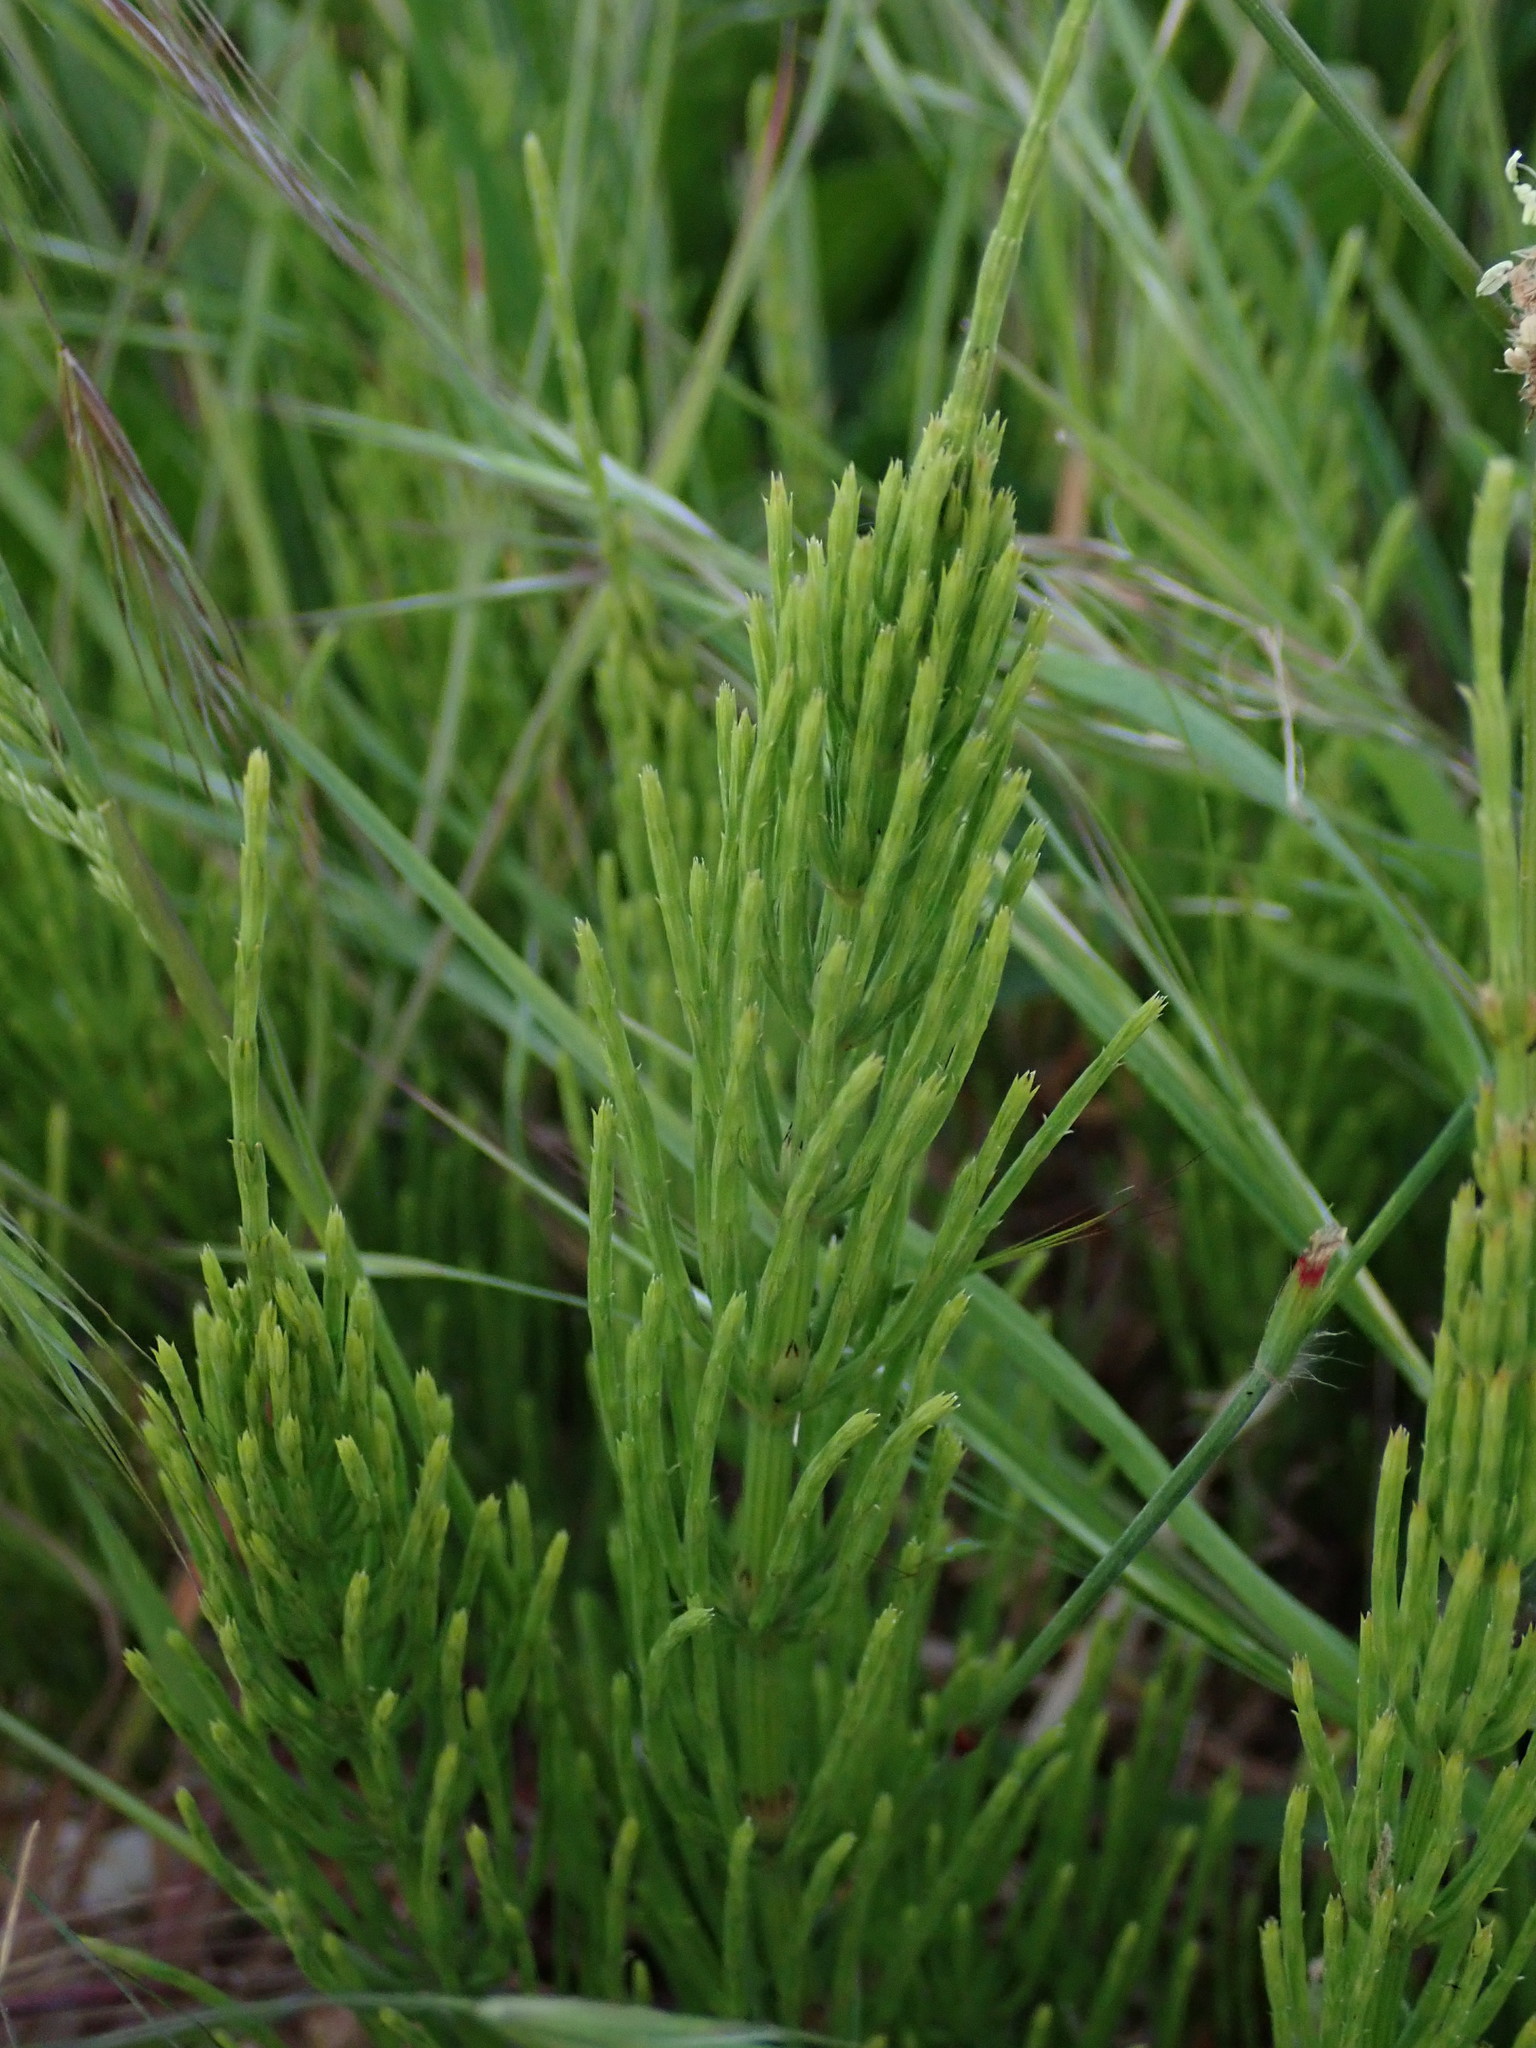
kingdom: Plantae
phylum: Tracheophyta
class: Polypodiopsida
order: Equisetales
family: Equisetaceae
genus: Equisetum
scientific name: Equisetum arvense
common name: Field horsetail
